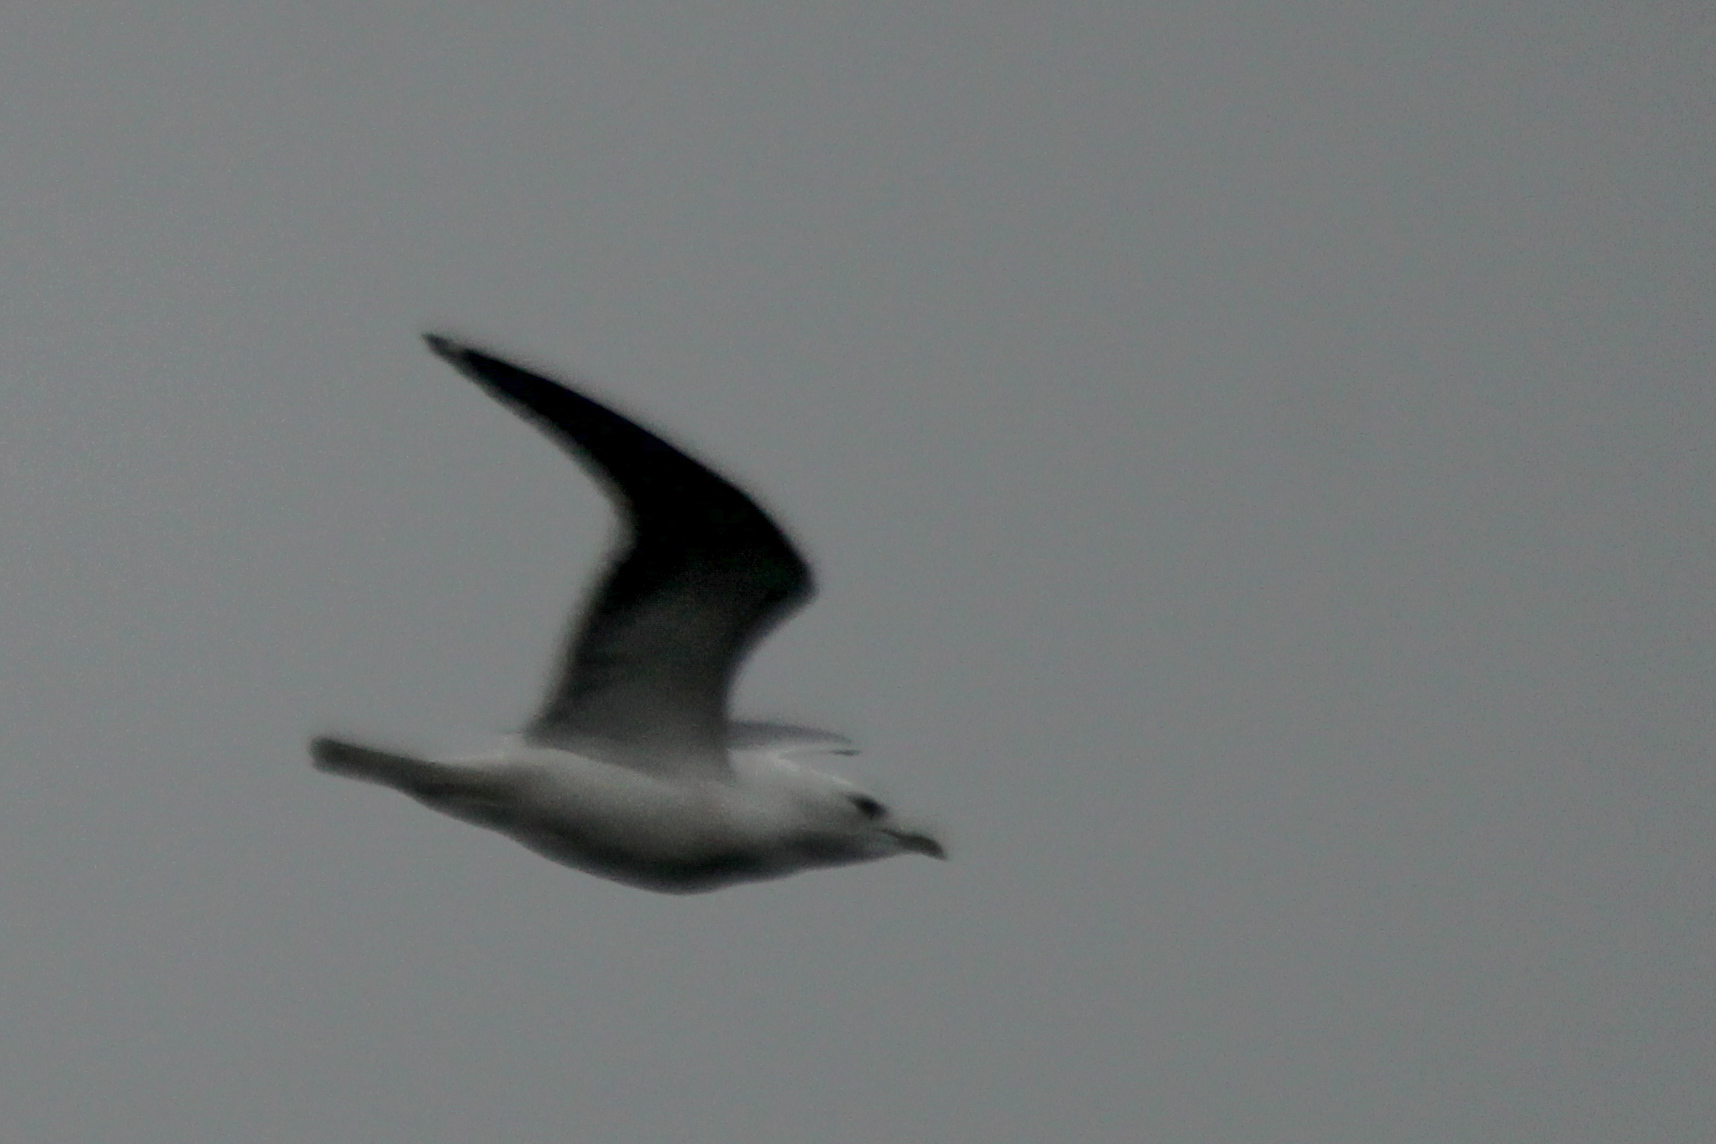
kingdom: Animalia
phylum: Chordata
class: Aves
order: Charadriiformes
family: Laridae
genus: Larus
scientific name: Larus canus
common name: Mew gull
